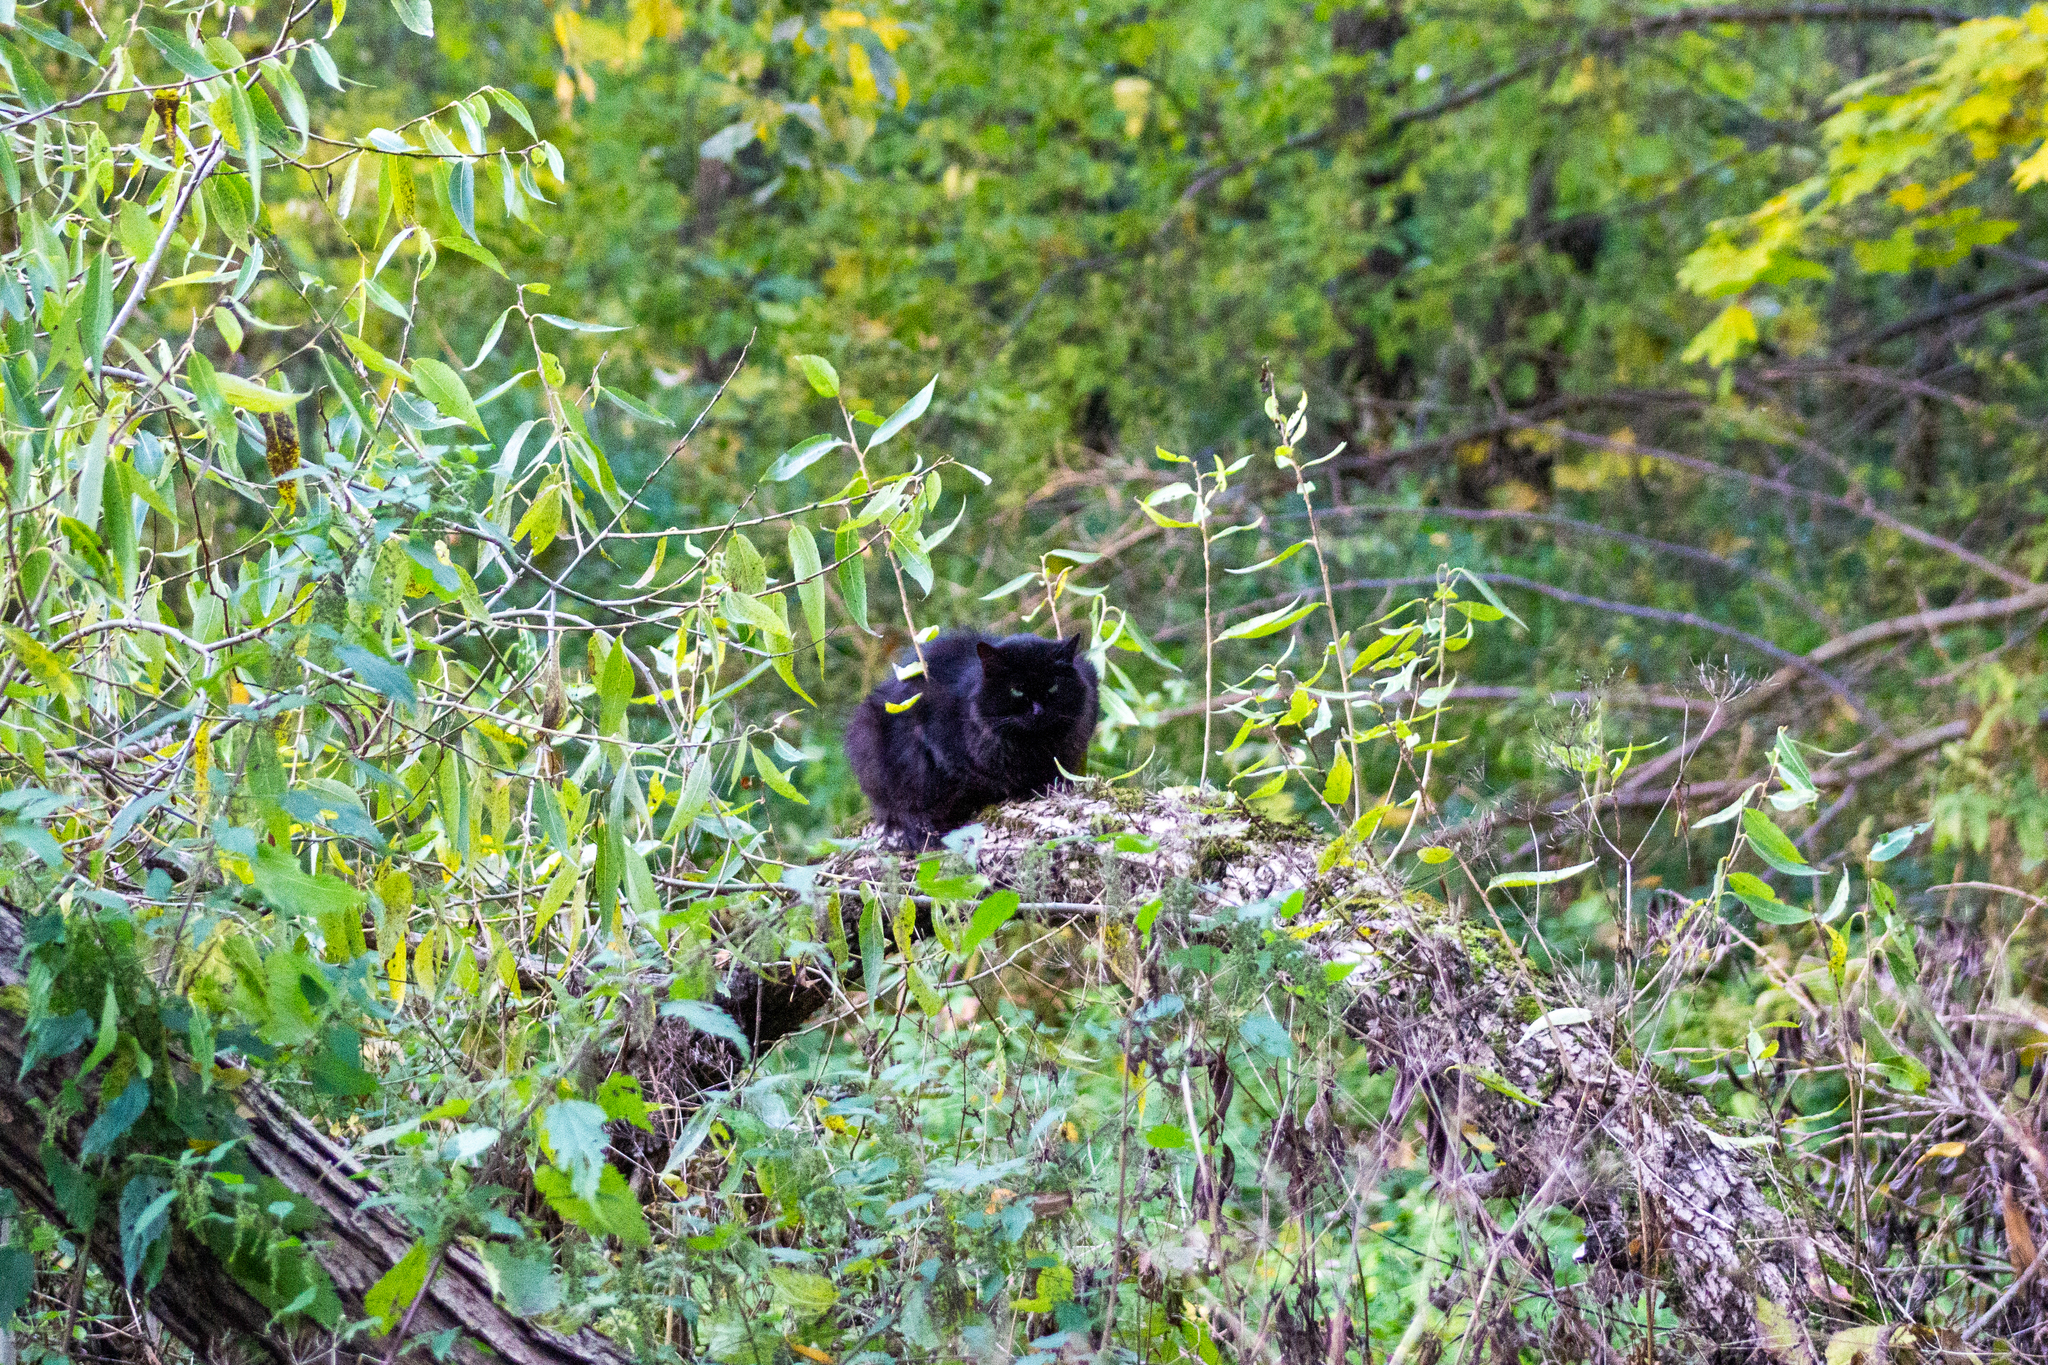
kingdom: Animalia
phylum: Chordata
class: Mammalia
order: Carnivora
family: Felidae
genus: Felis
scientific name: Felis catus
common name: Domestic cat
